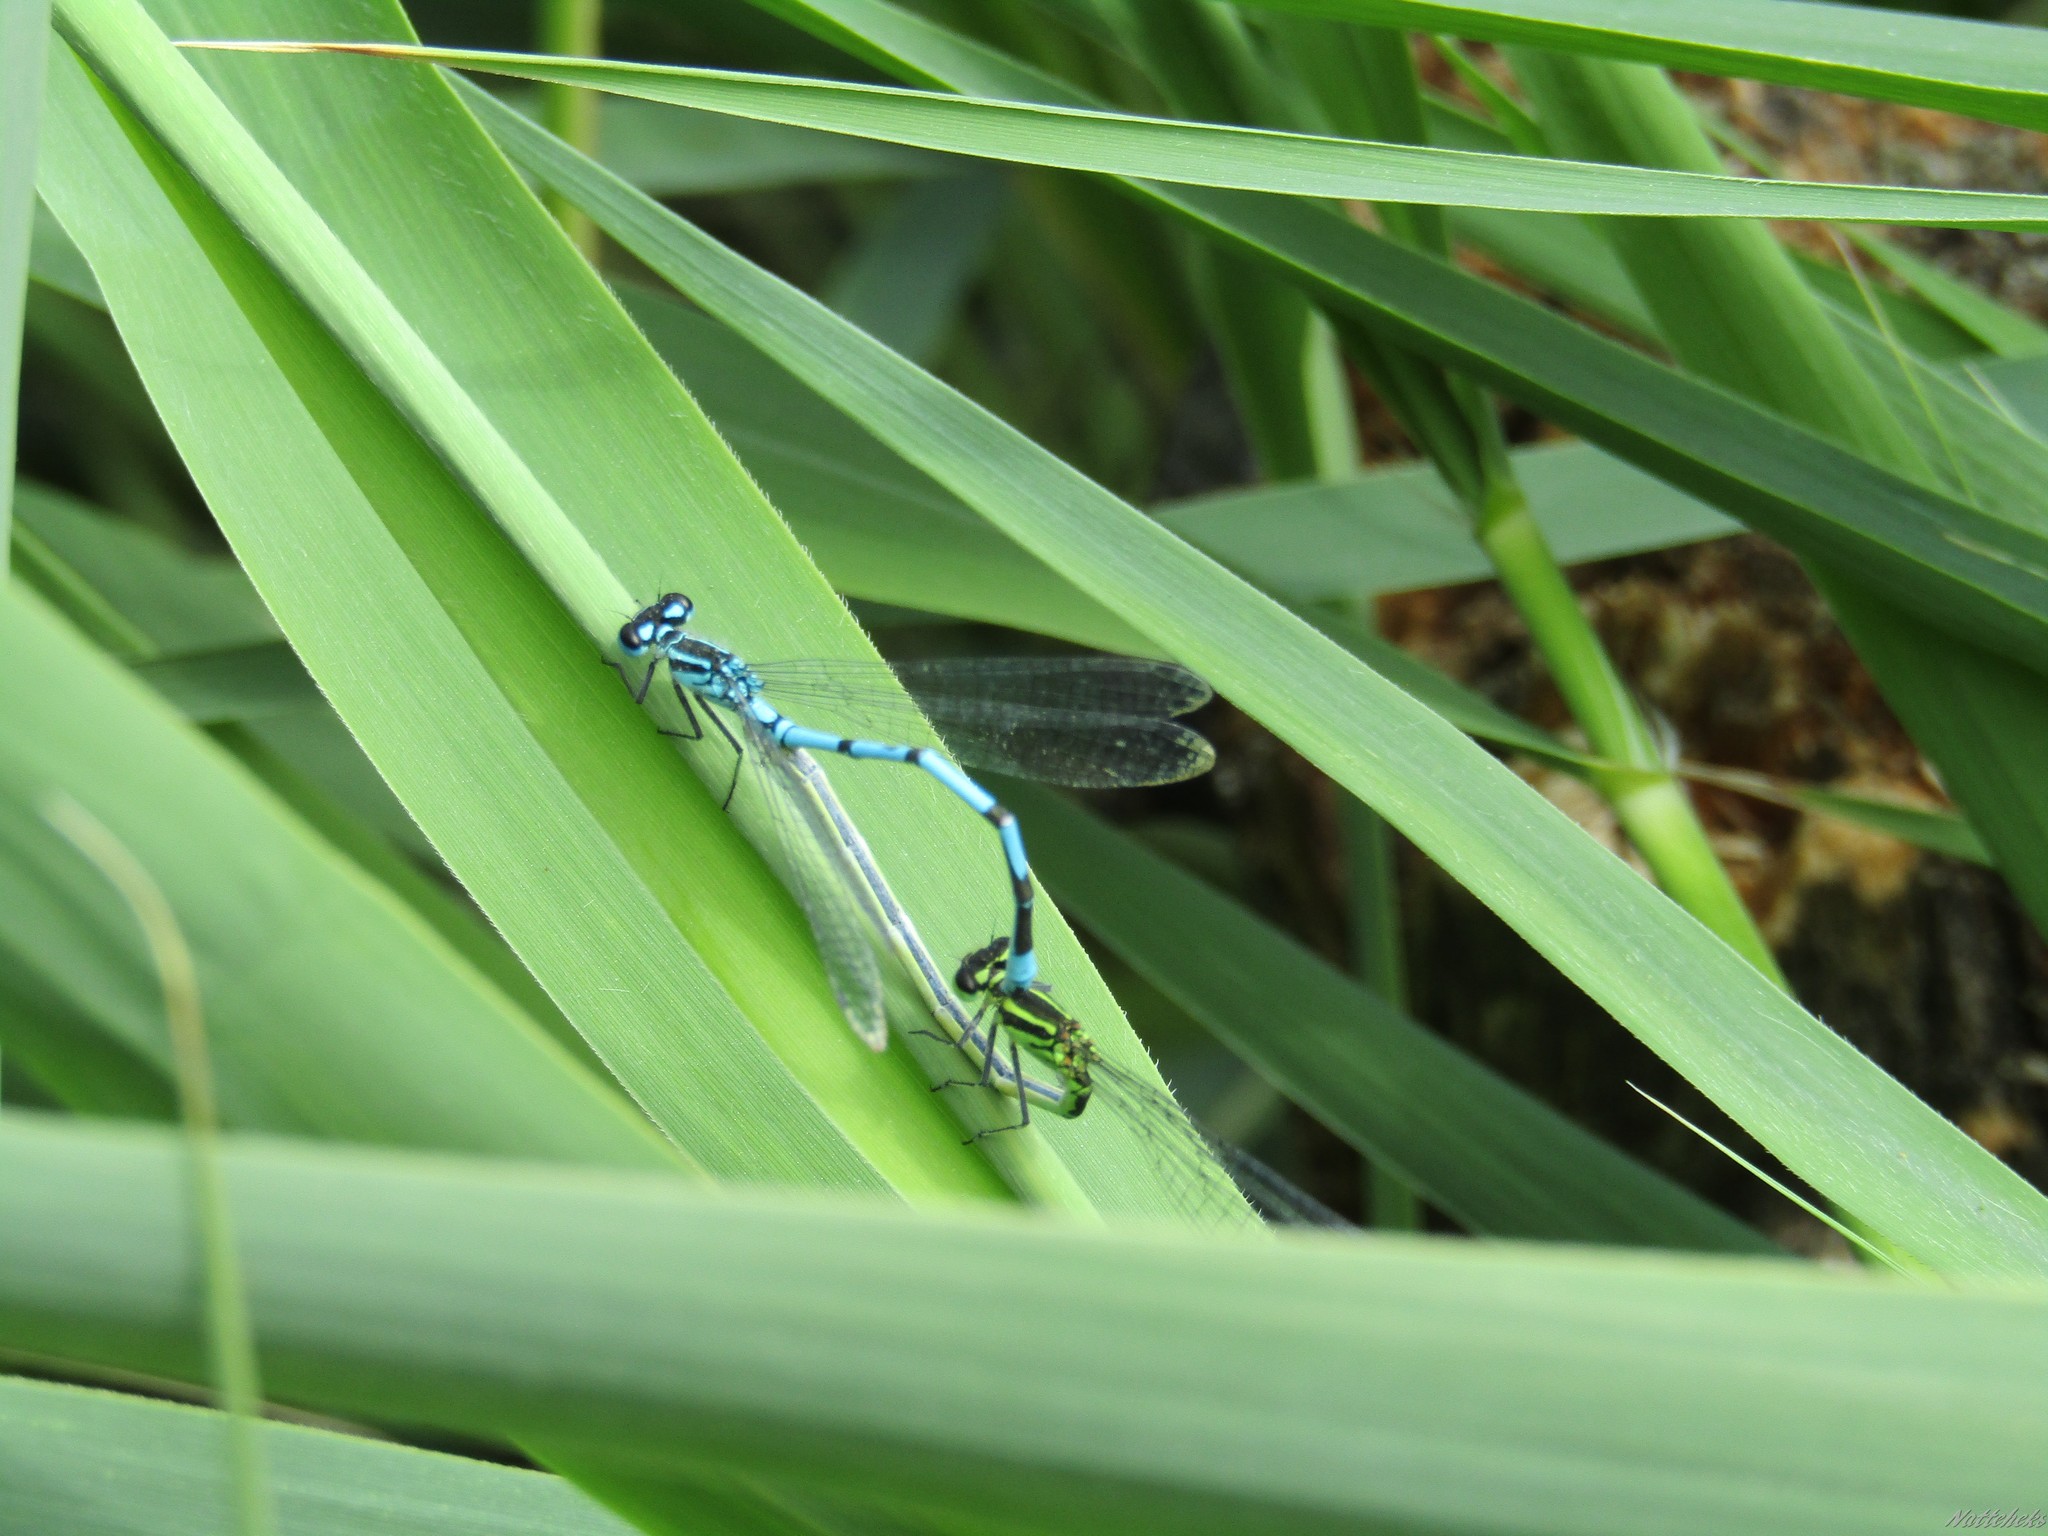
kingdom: Animalia
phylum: Arthropoda
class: Insecta
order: Odonata
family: Coenagrionidae
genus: Coenagrion
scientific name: Coenagrion puella
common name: Azure damselfly
